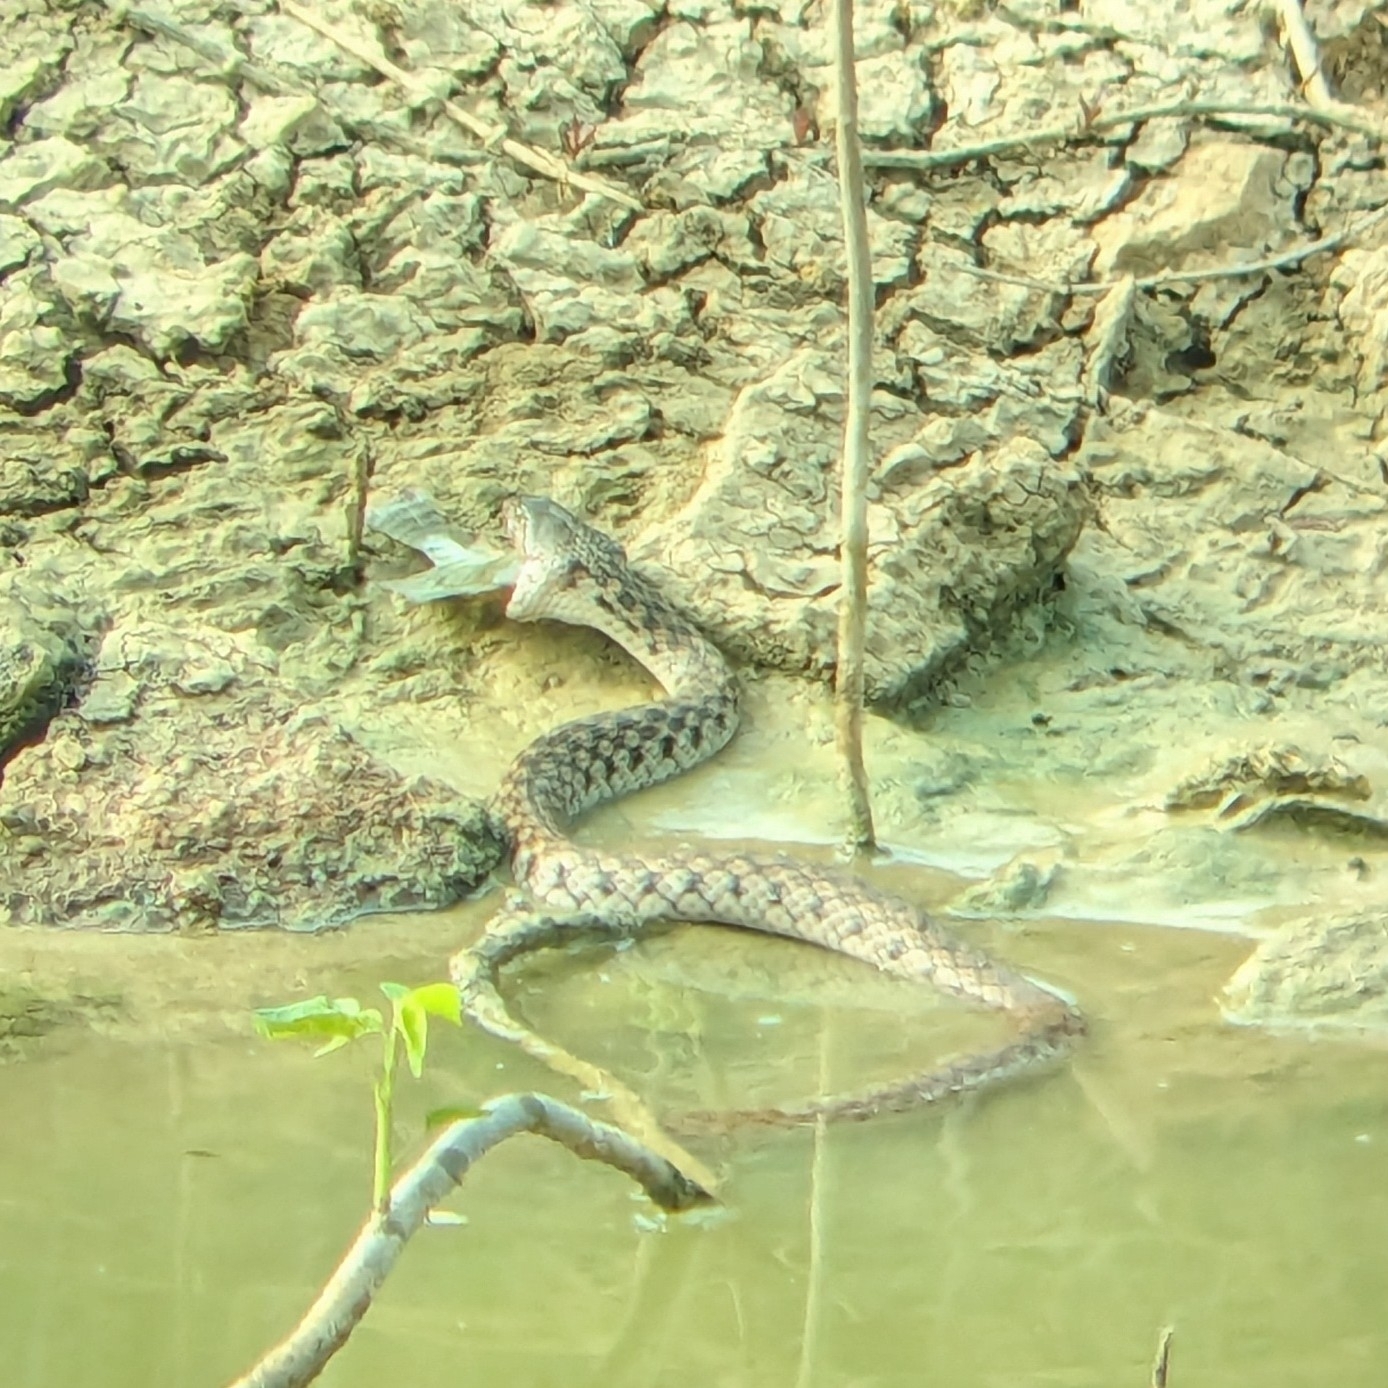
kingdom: Animalia
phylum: Chordata
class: Squamata
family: Colubridae
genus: Fowlea
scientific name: Fowlea piscator
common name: Asiatic water snake
